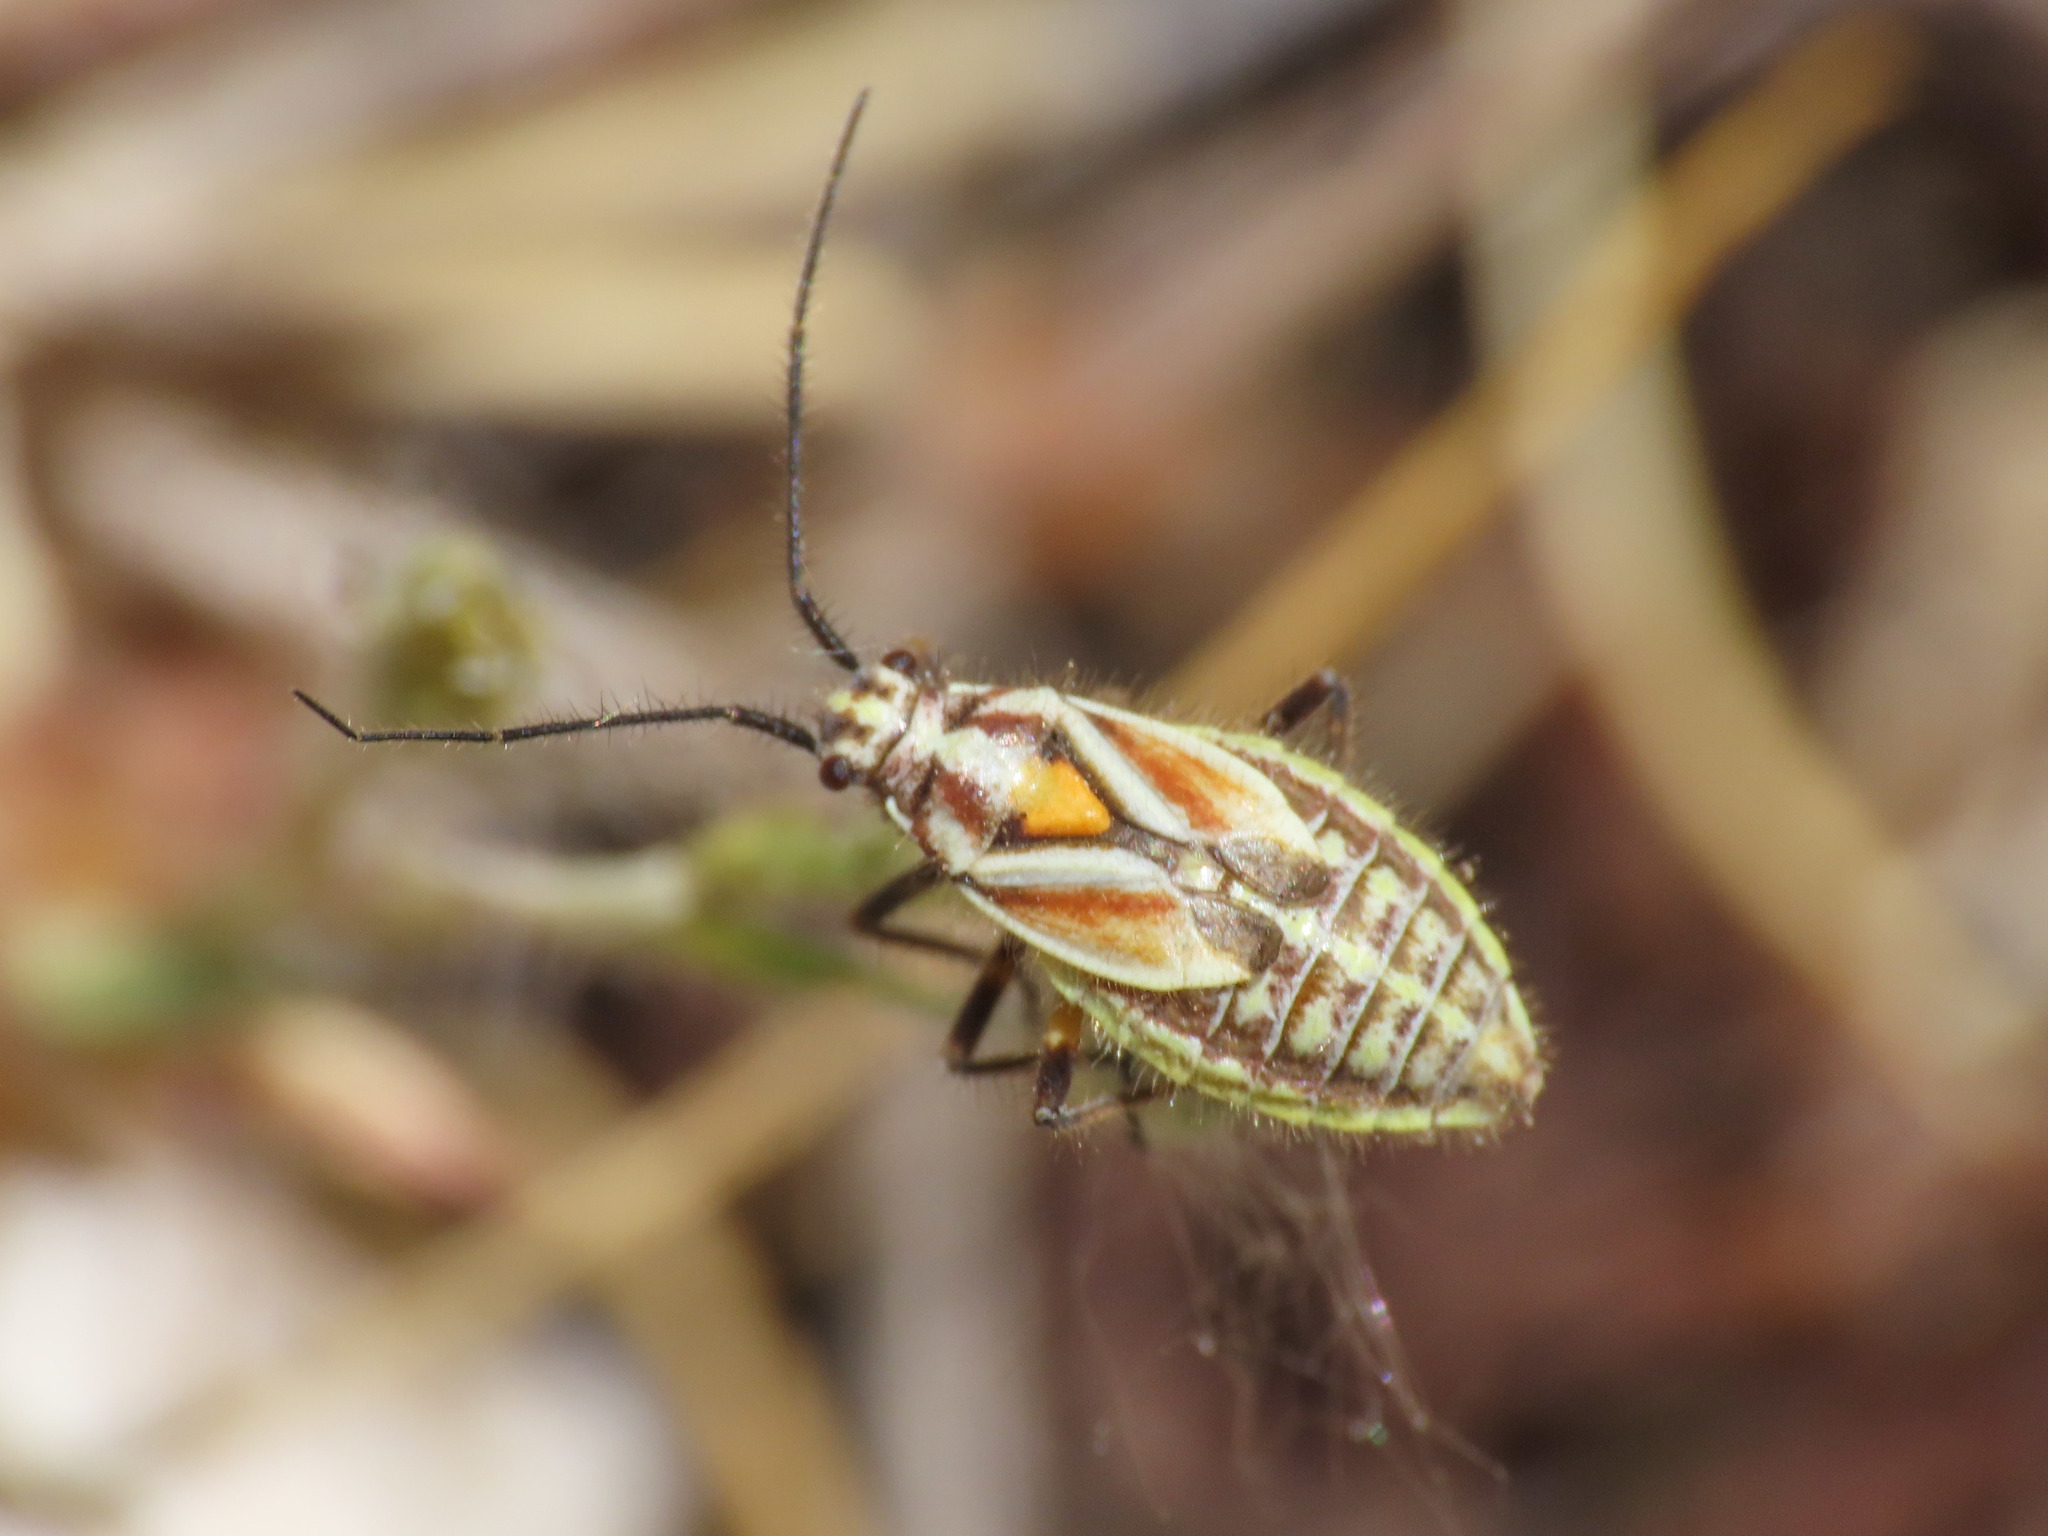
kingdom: Animalia
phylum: Arthropoda
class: Insecta
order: Hemiptera
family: Miridae
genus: Horistus
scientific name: Horistus elongatus
